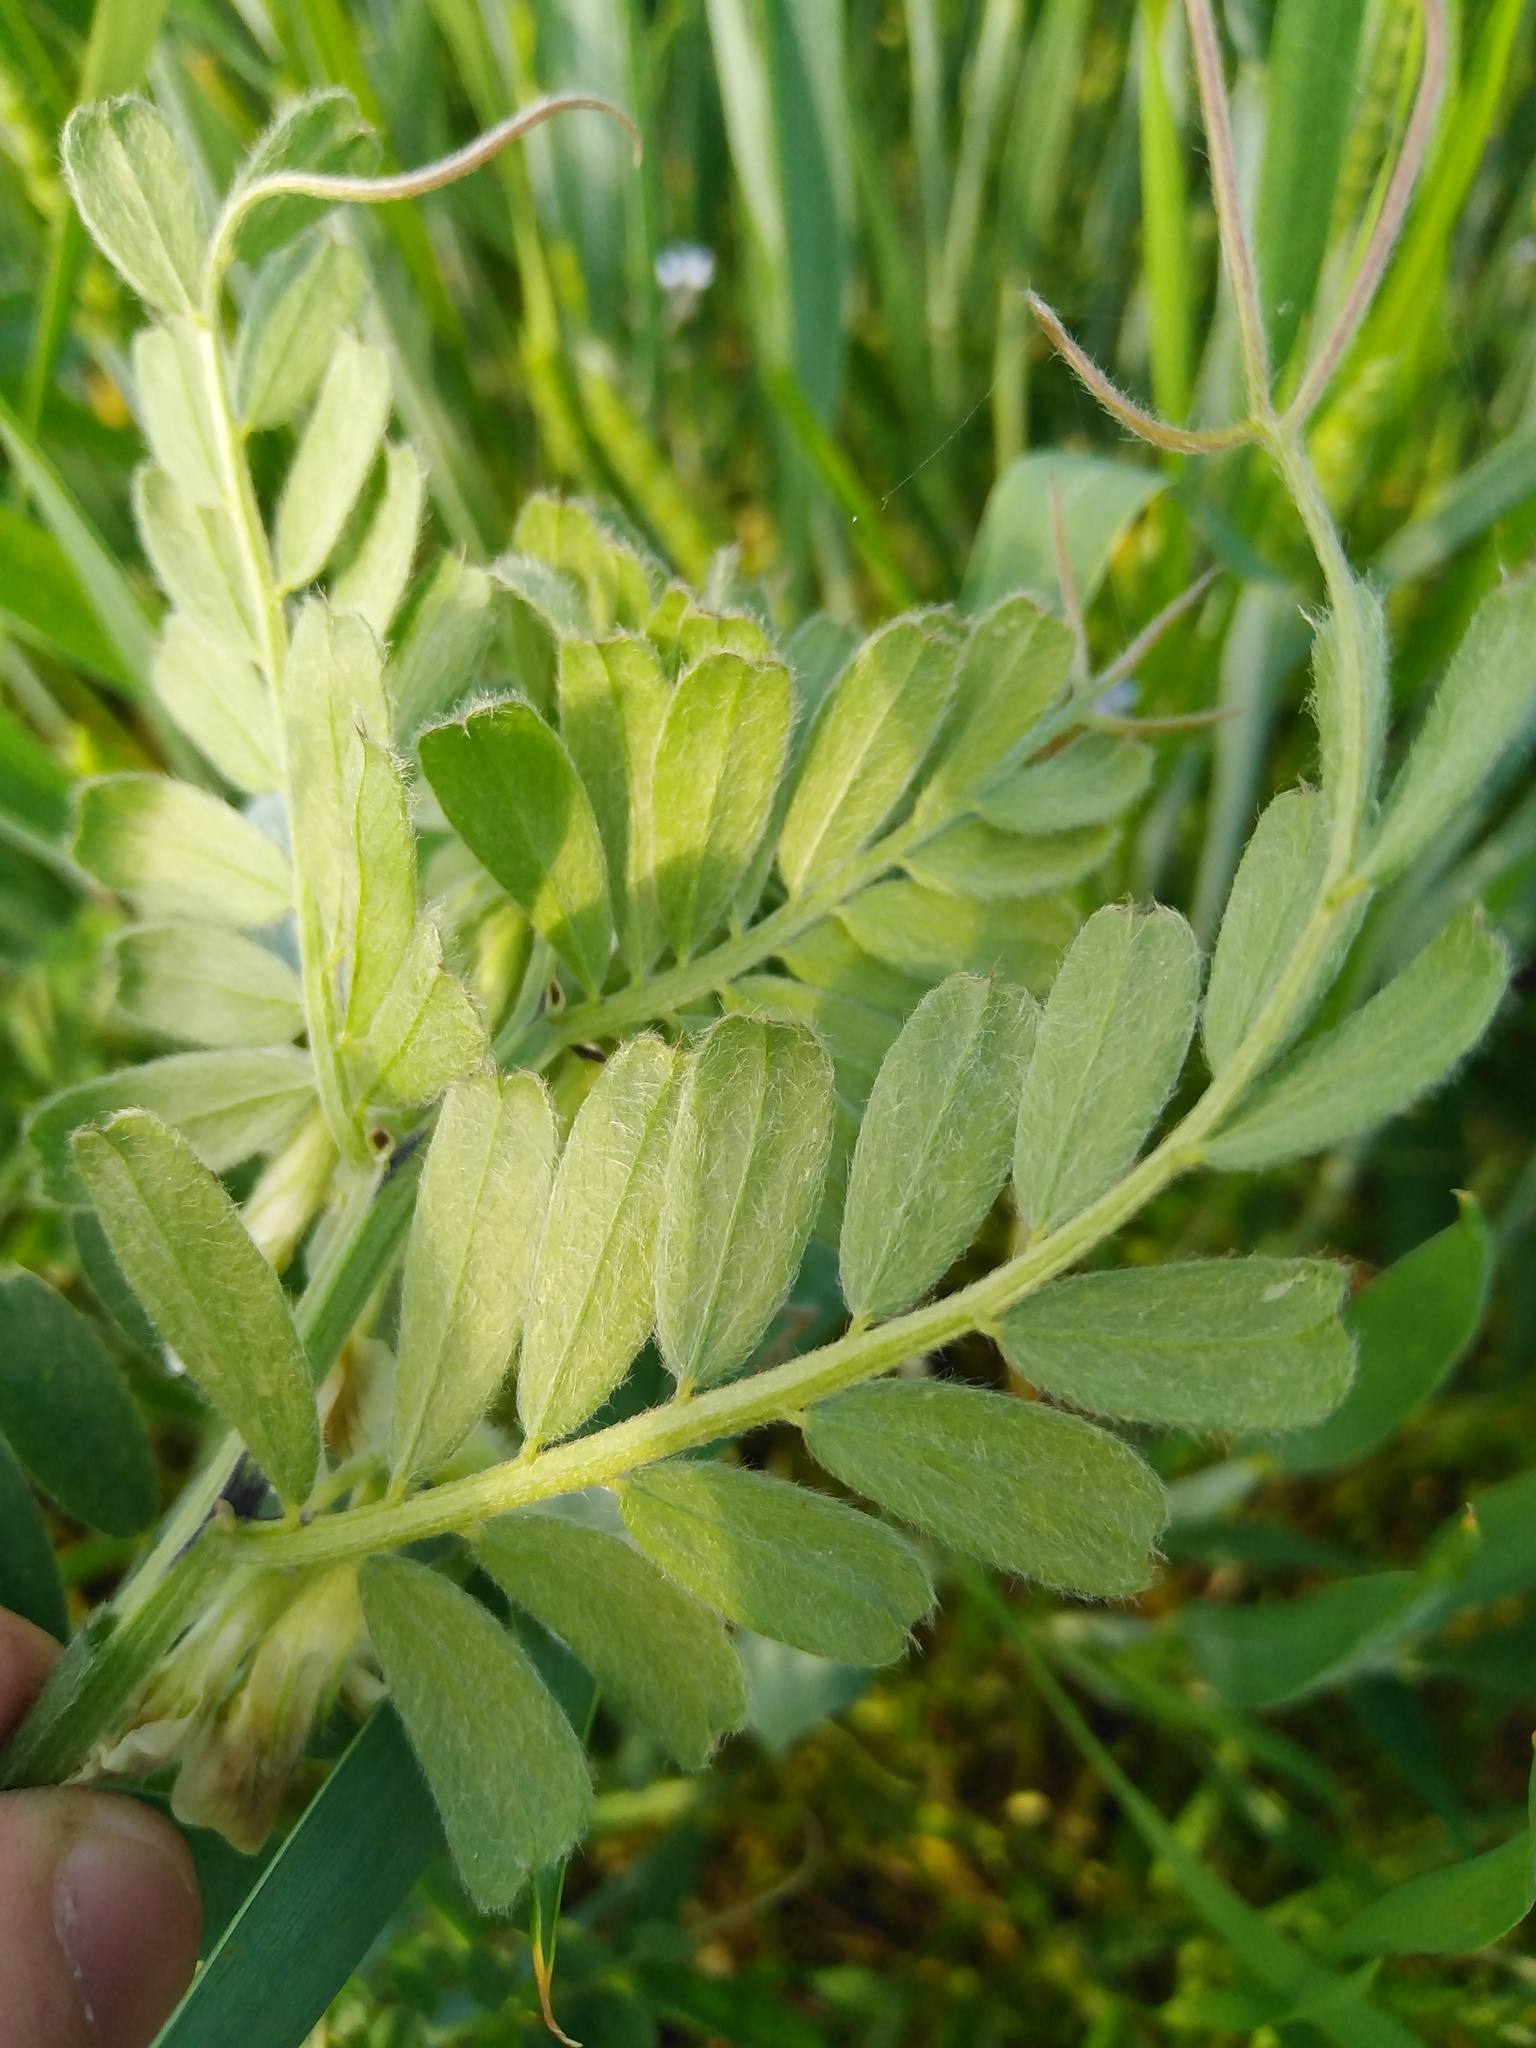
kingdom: Plantae
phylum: Tracheophyta
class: Magnoliopsida
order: Fabales
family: Fabaceae
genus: Vicia
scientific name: Vicia pannonica
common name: Hungarian vetch
